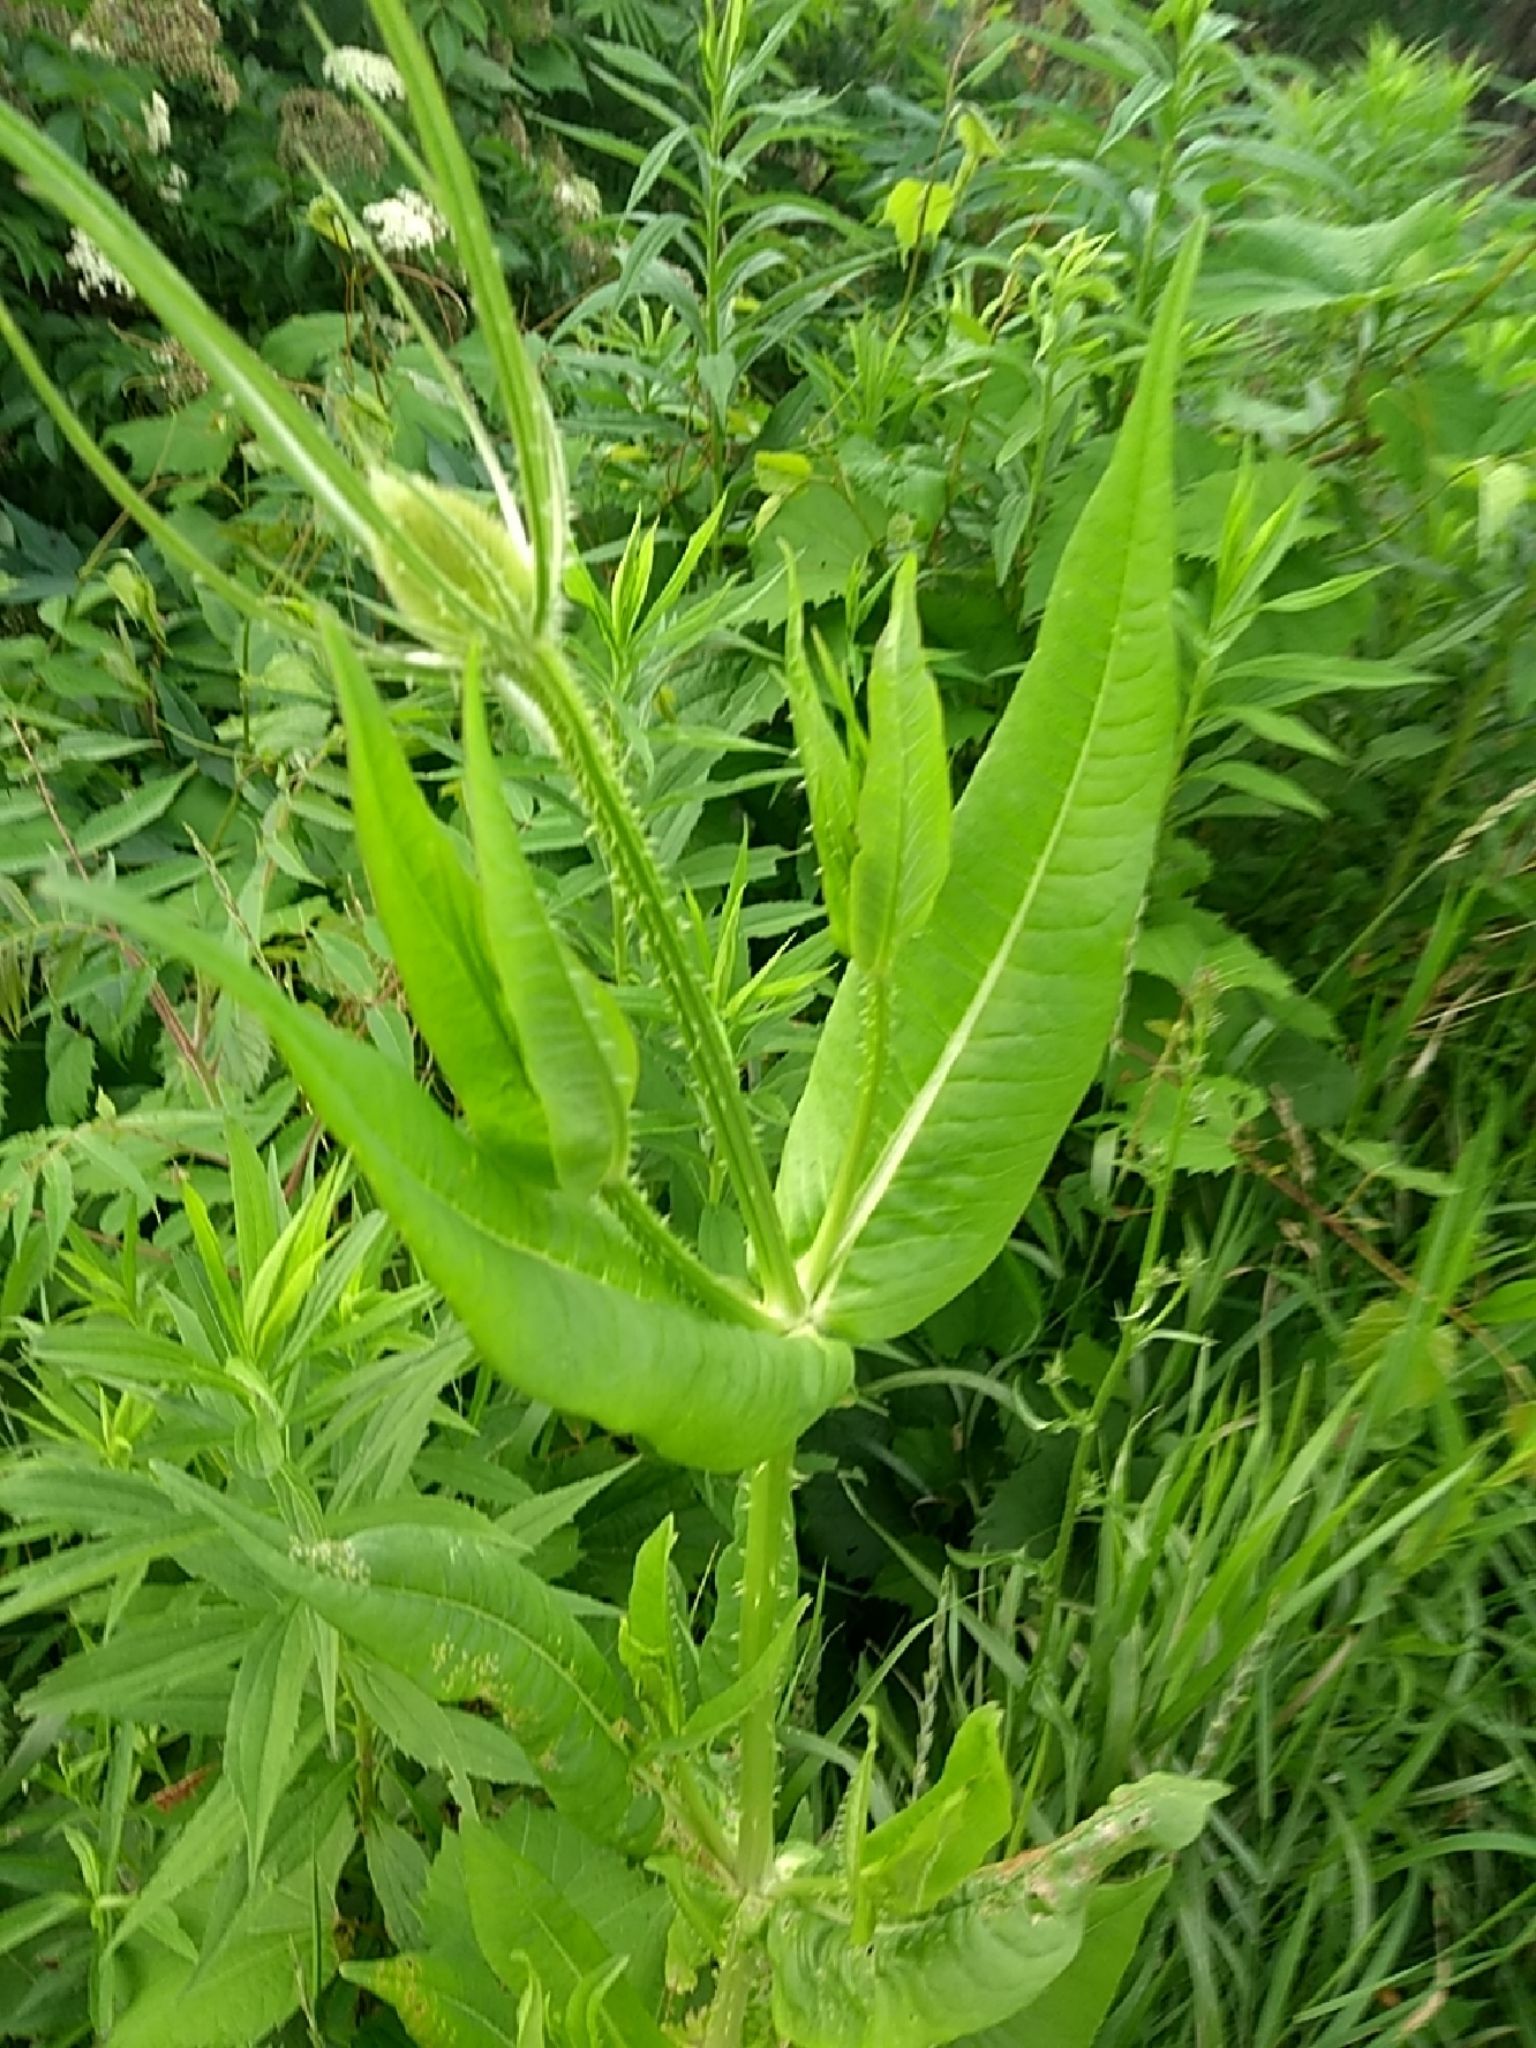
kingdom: Plantae
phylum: Tracheophyta
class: Magnoliopsida
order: Dipsacales
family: Caprifoliaceae
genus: Dipsacus
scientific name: Dipsacus fullonum
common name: Teasel
